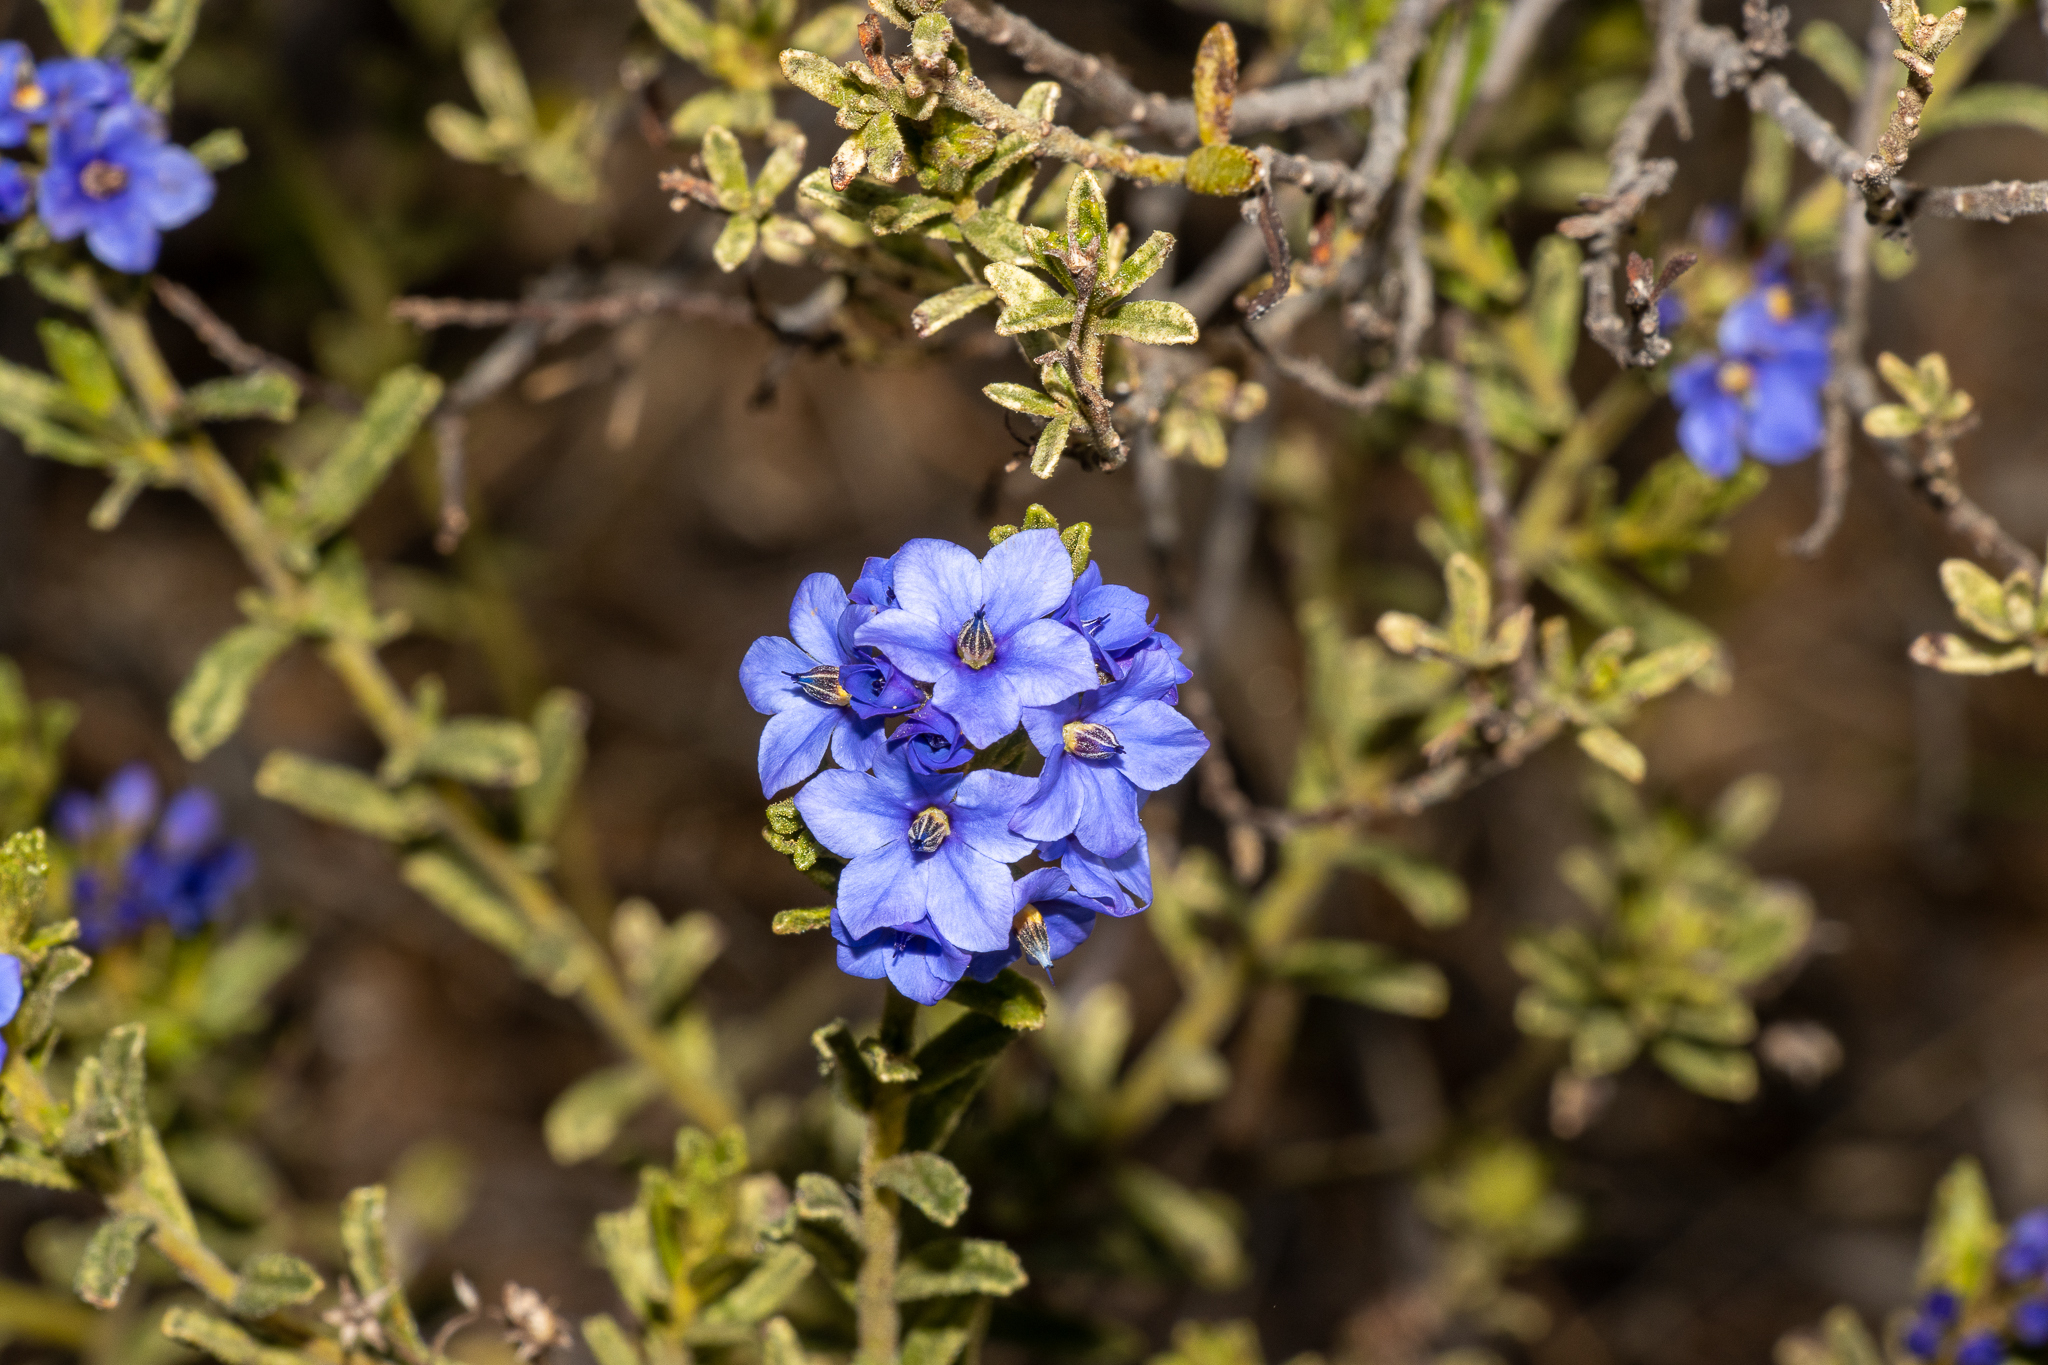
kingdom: Plantae
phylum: Tracheophyta
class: Magnoliopsida
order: Boraginales
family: Ehretiaceae
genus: Halgania
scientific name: Halgania cyanea
